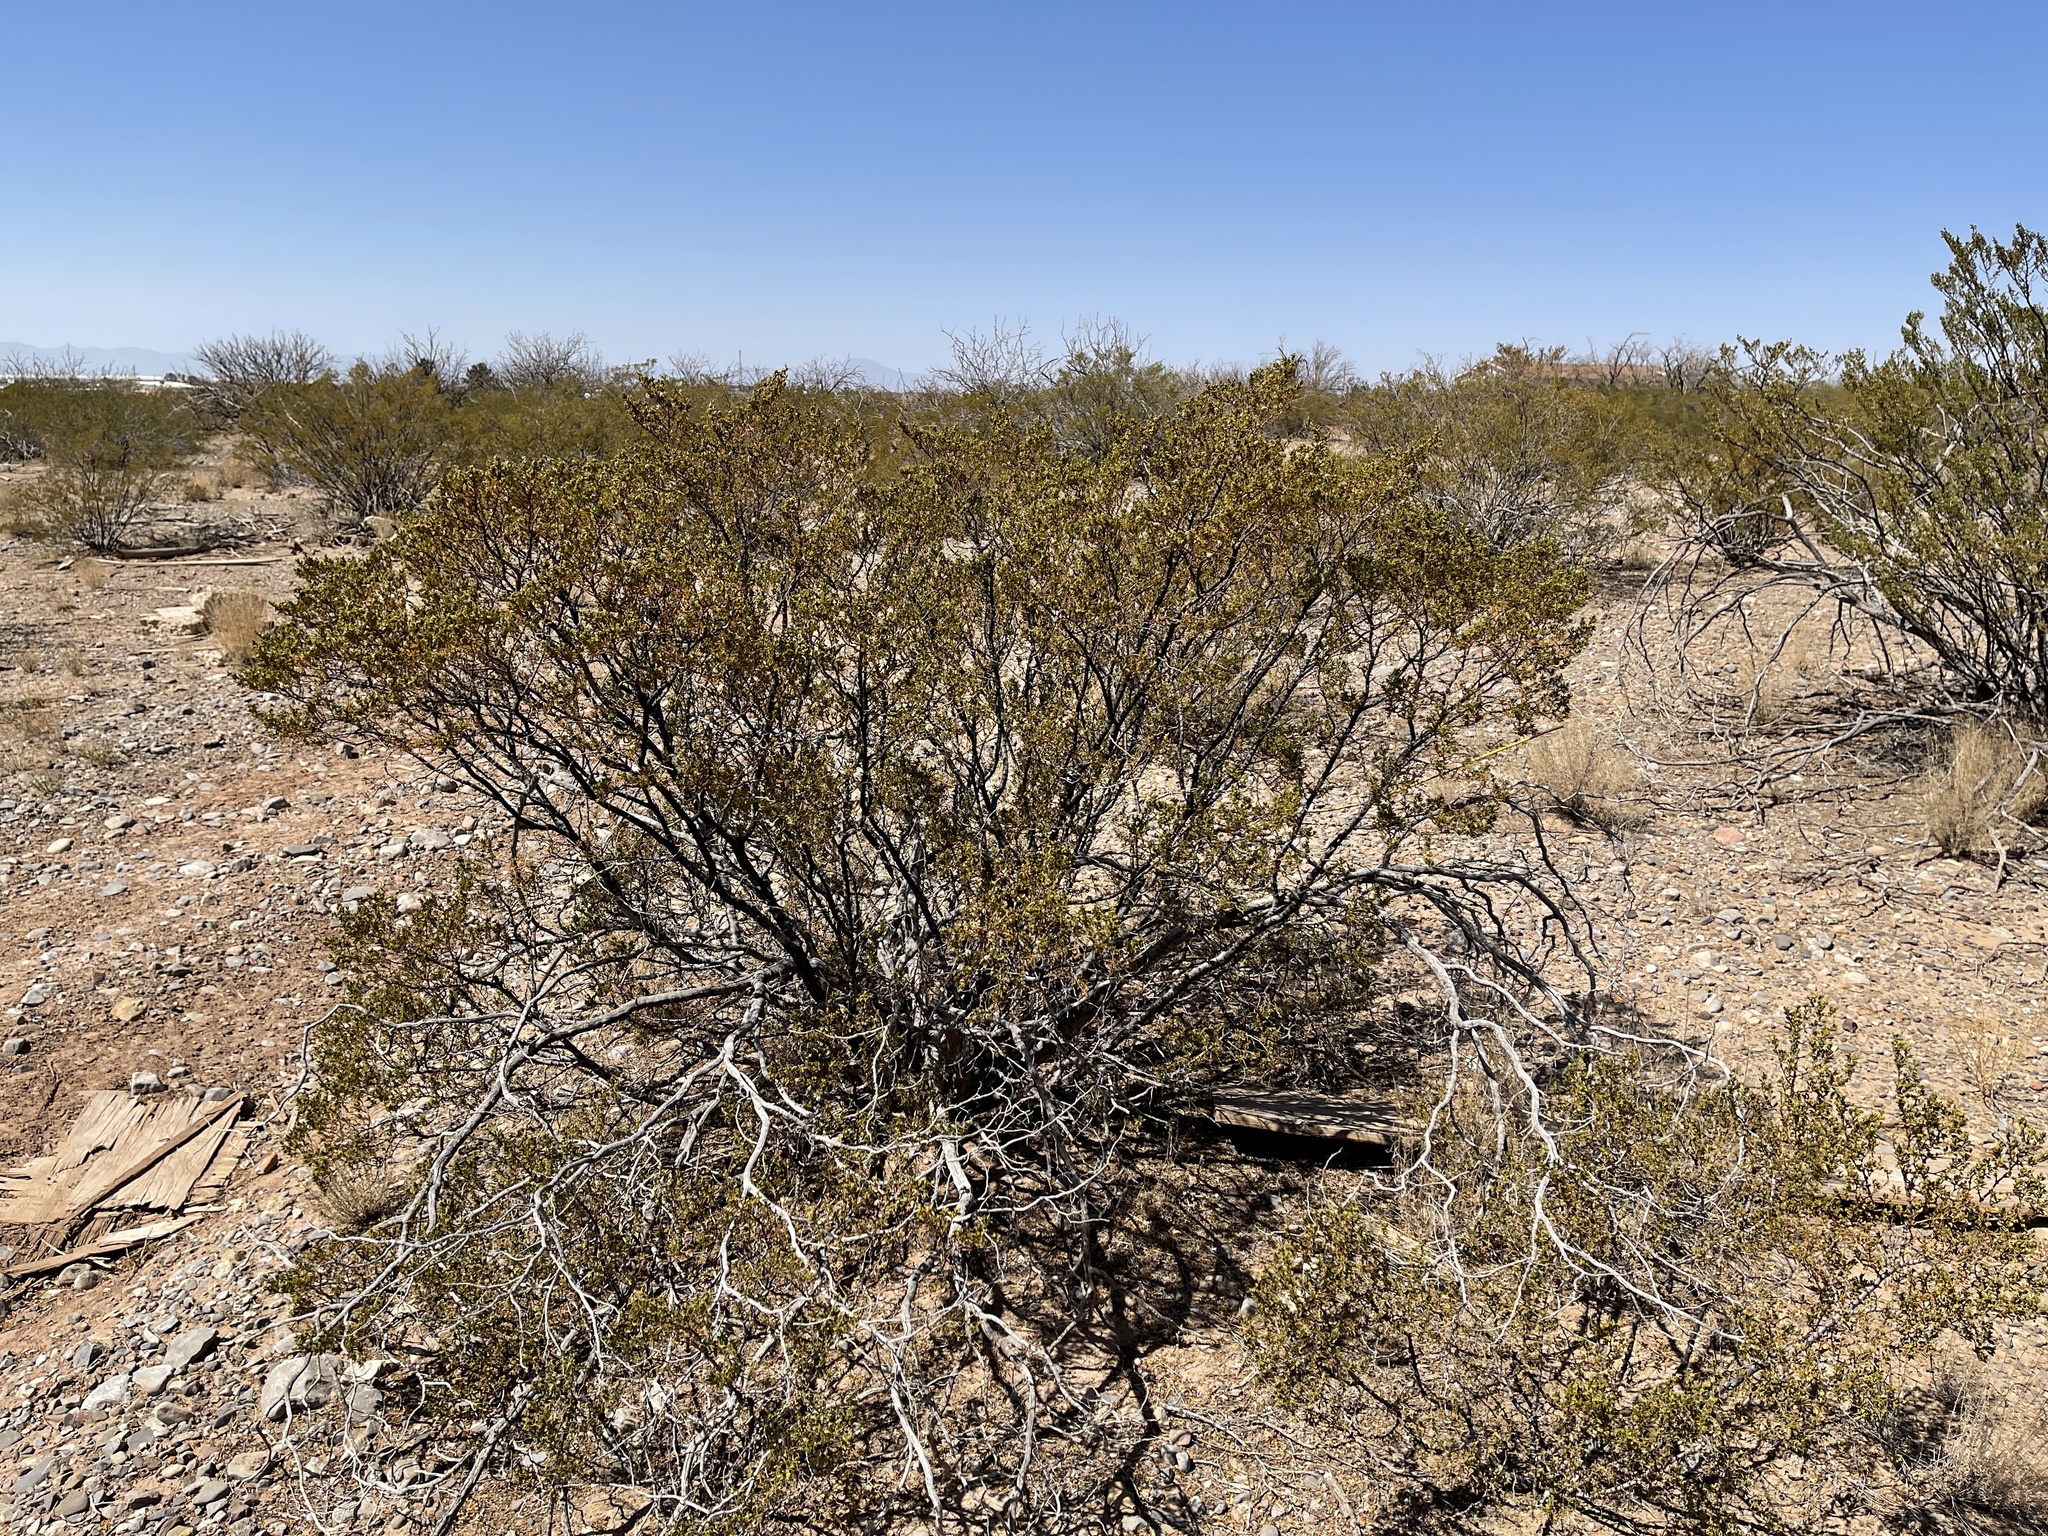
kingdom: Plantae
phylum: Tracheophyta
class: Magnoliopsida
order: Zygophyllales
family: Zygophyllaceae
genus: Larrea
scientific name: Larrea tridentata
